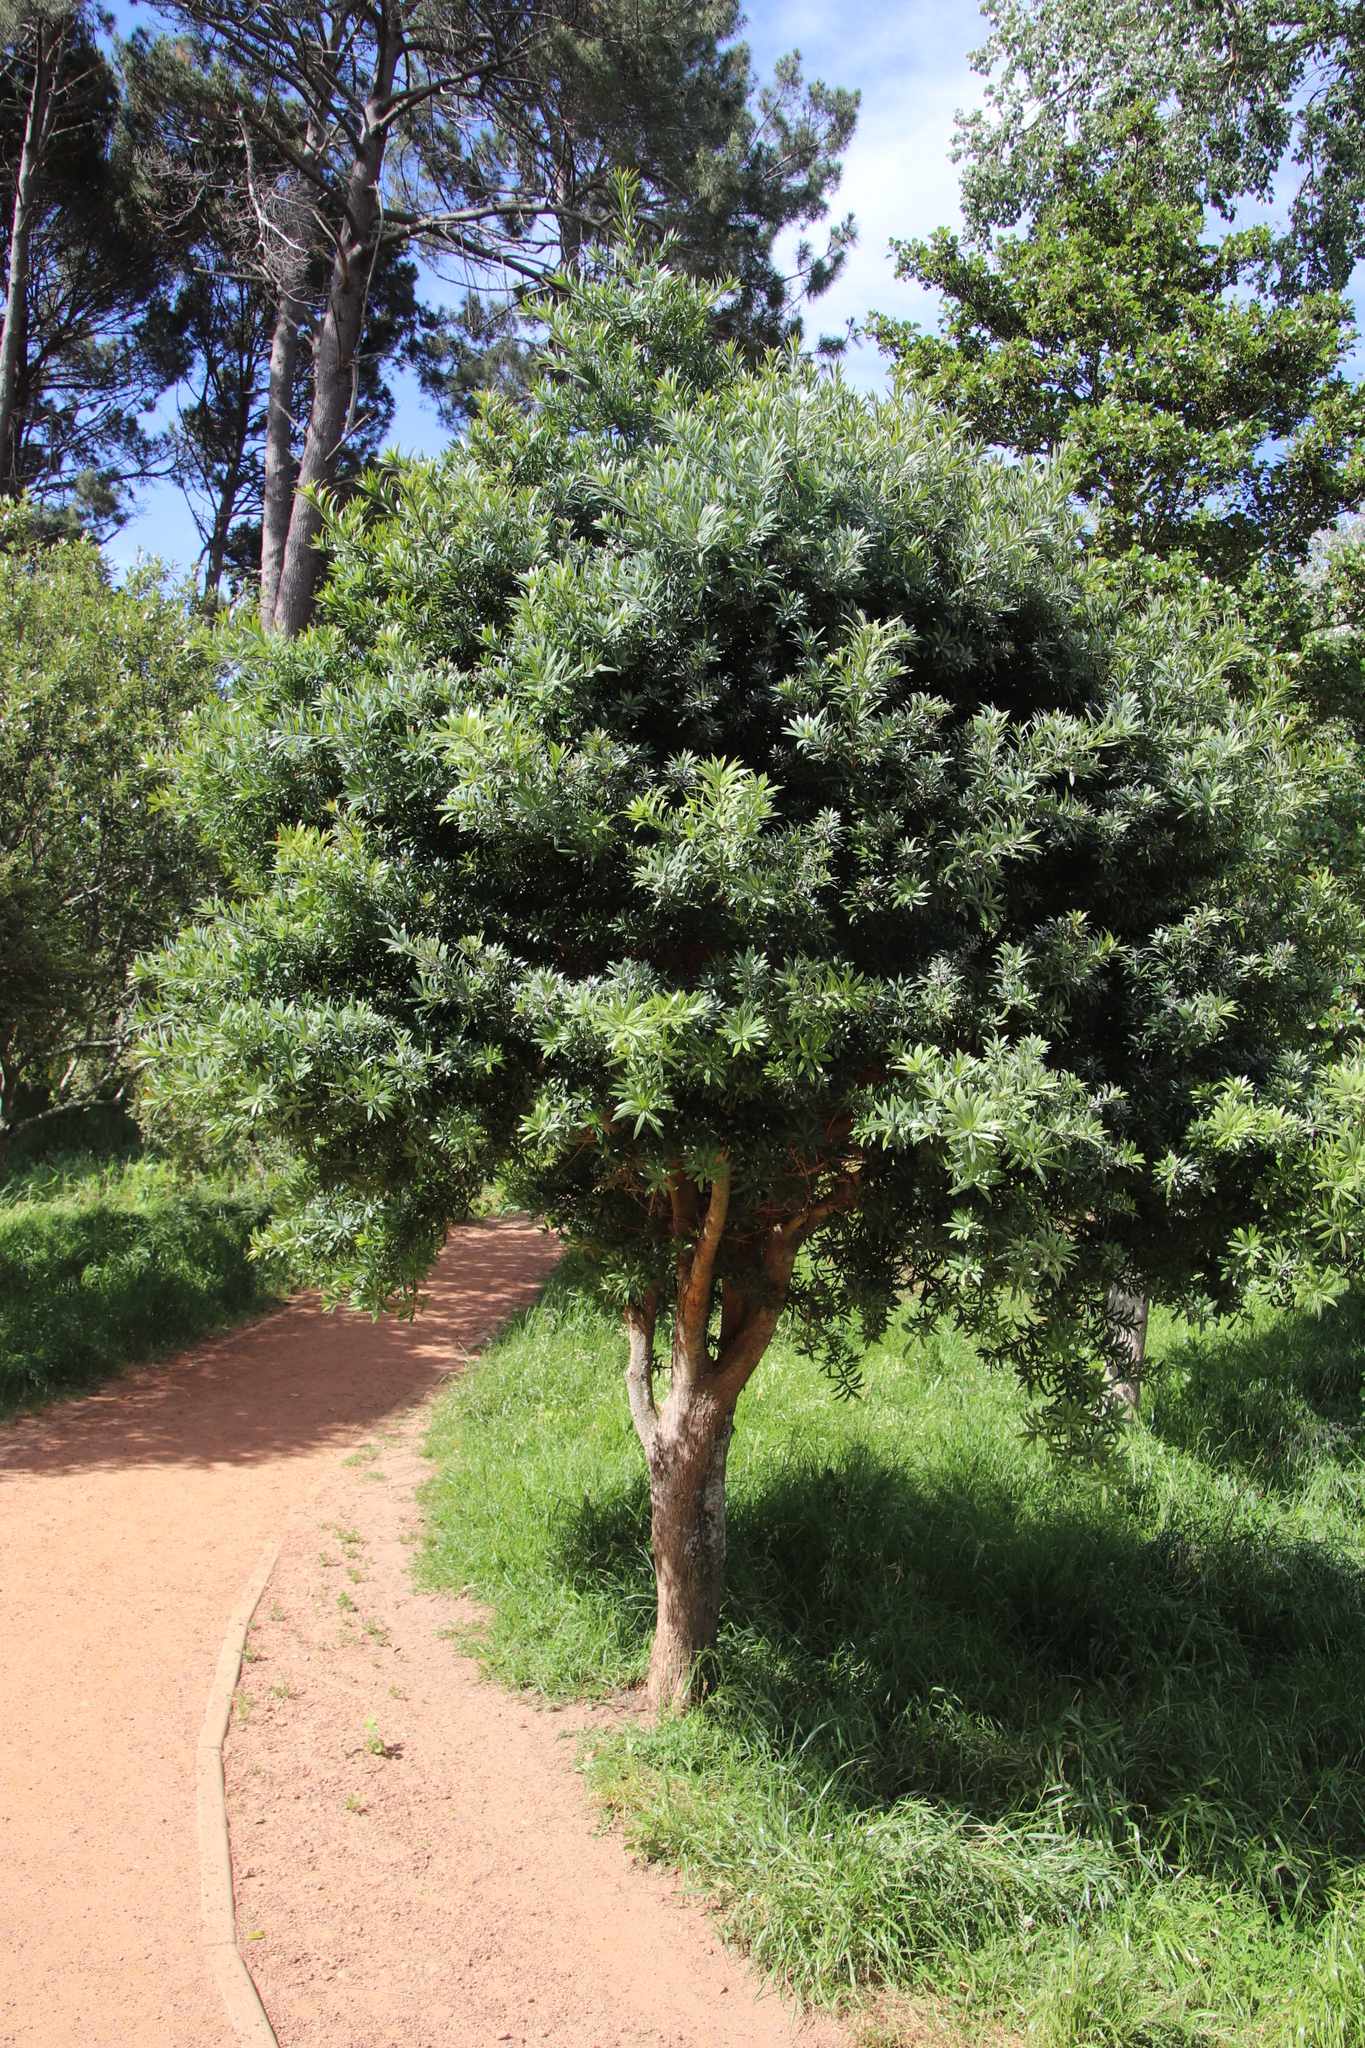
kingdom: Plantae
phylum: Tracheophyta
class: Pinopsida
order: Pinales
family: Podocarpaceae
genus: Podocarpus
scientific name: Podocarpus latifolius
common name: True yellowwood
